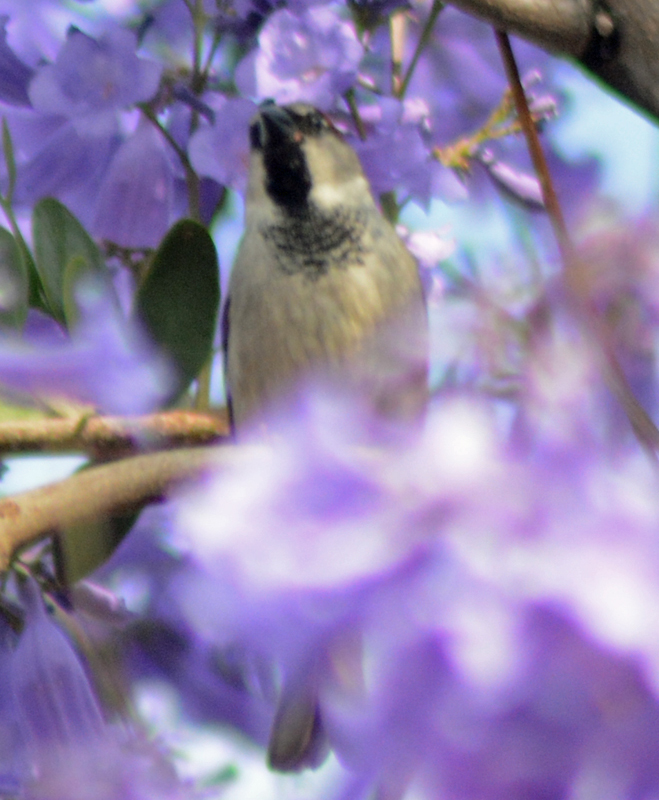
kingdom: Animalia
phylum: Chordata
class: Aves
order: Passeriformes
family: Passeridae
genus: Passer
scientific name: Passer domesticus
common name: House sparrow
